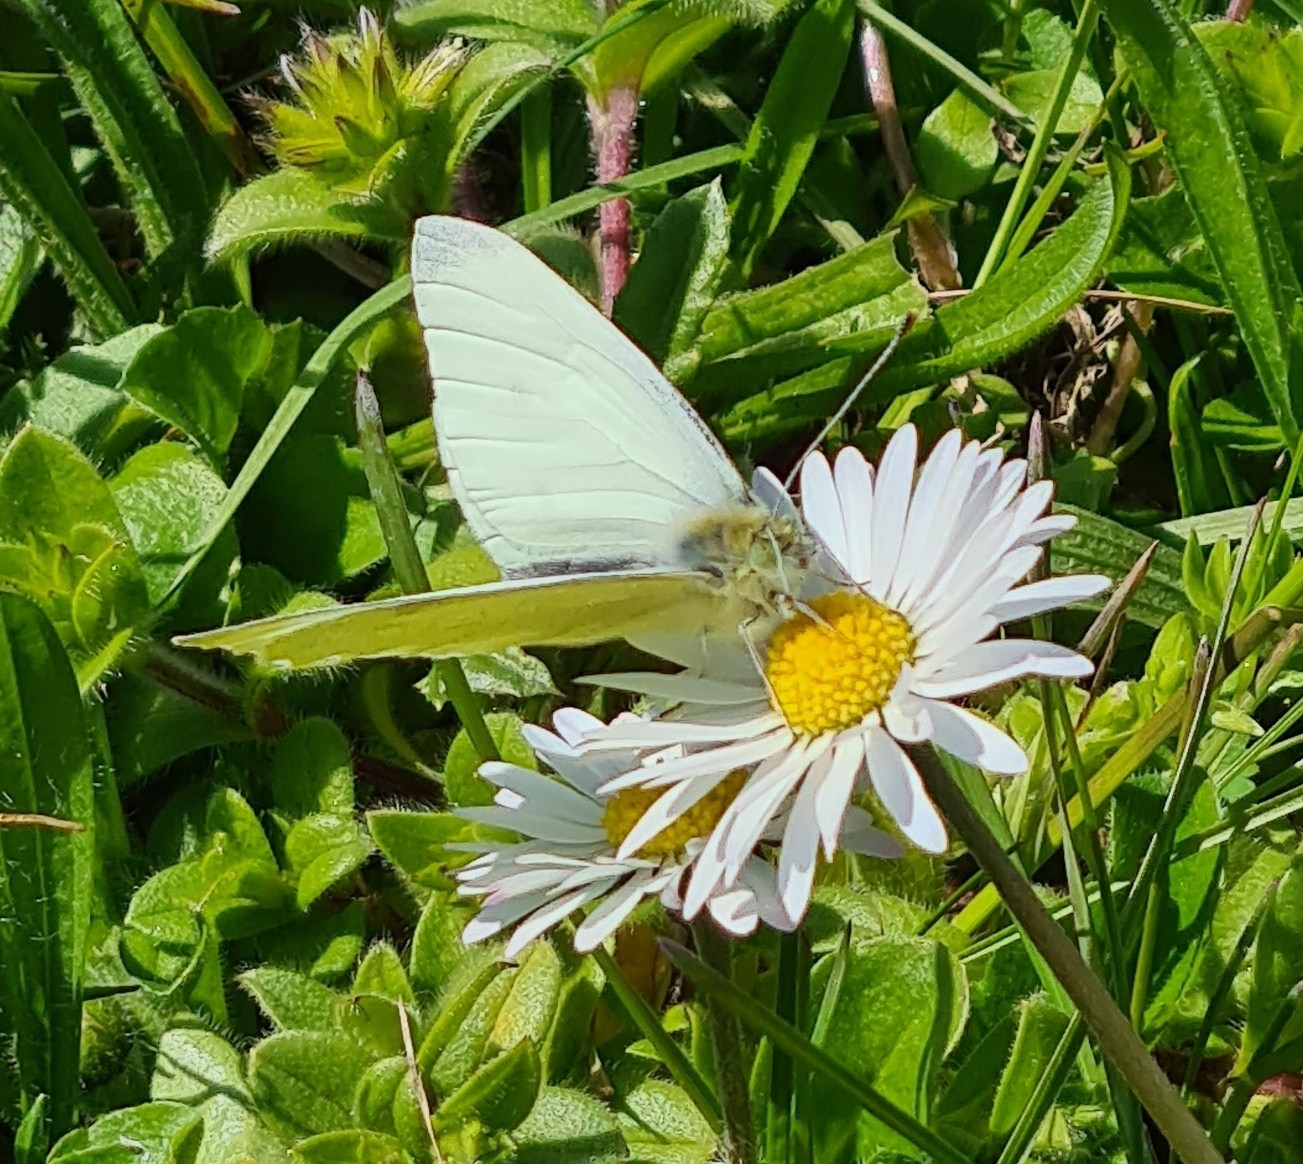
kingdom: Animalia
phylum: Arthropoda
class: Insecta
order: Lepidoptera
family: Pieridae
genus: Pieris
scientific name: Pieris rapae
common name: Small white
